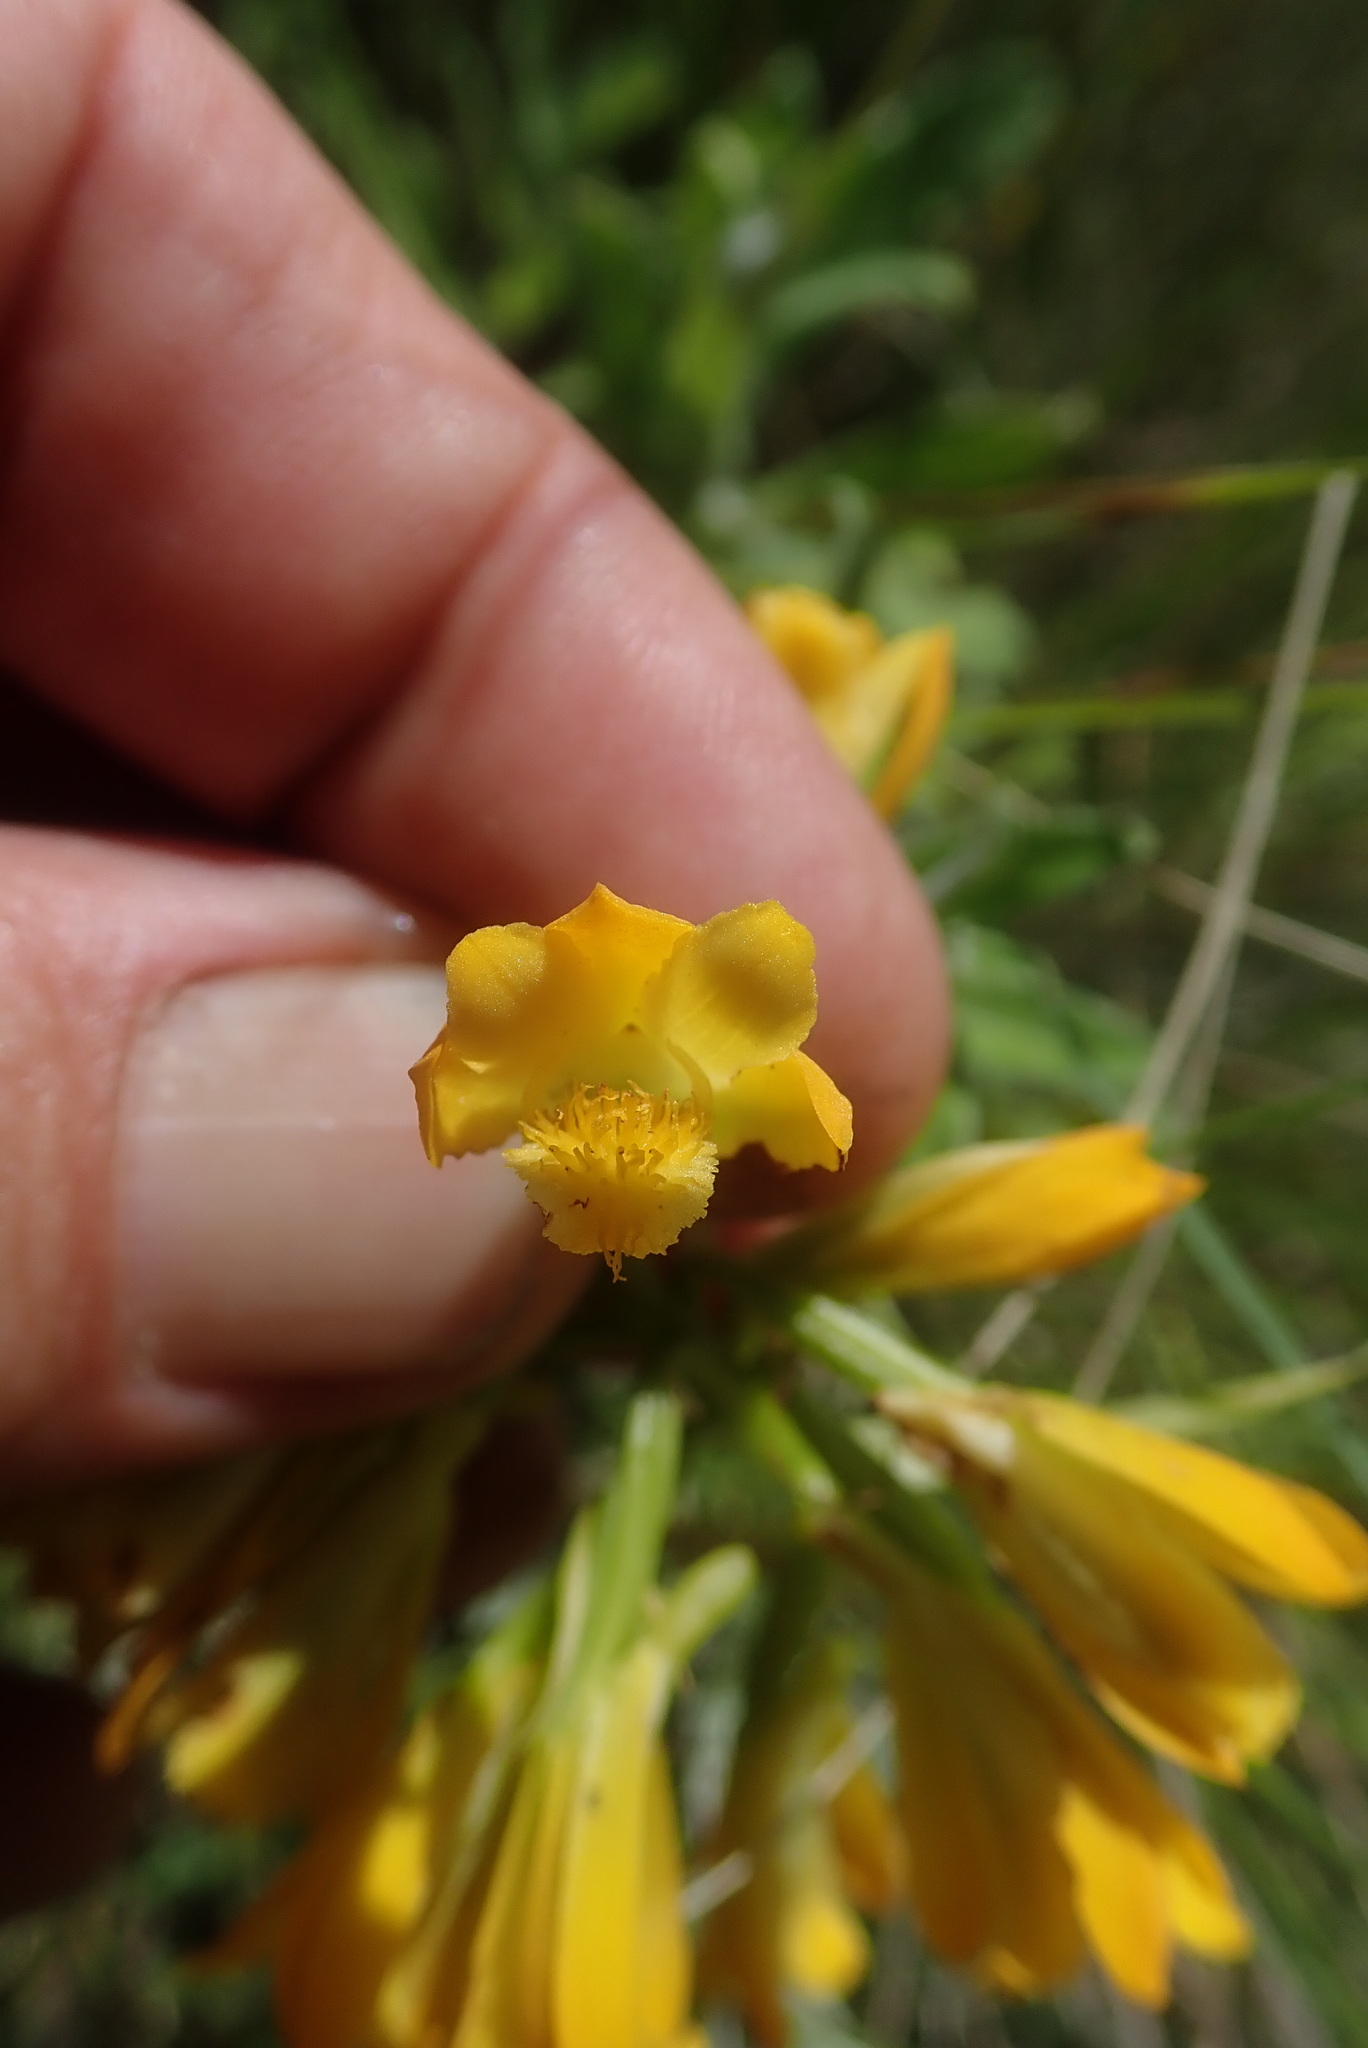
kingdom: Plantae
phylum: Tracheophyta
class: Liliopsida
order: Asparagales
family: Orchidaceae
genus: Eulophia
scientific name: Eulophia leontoglossa
